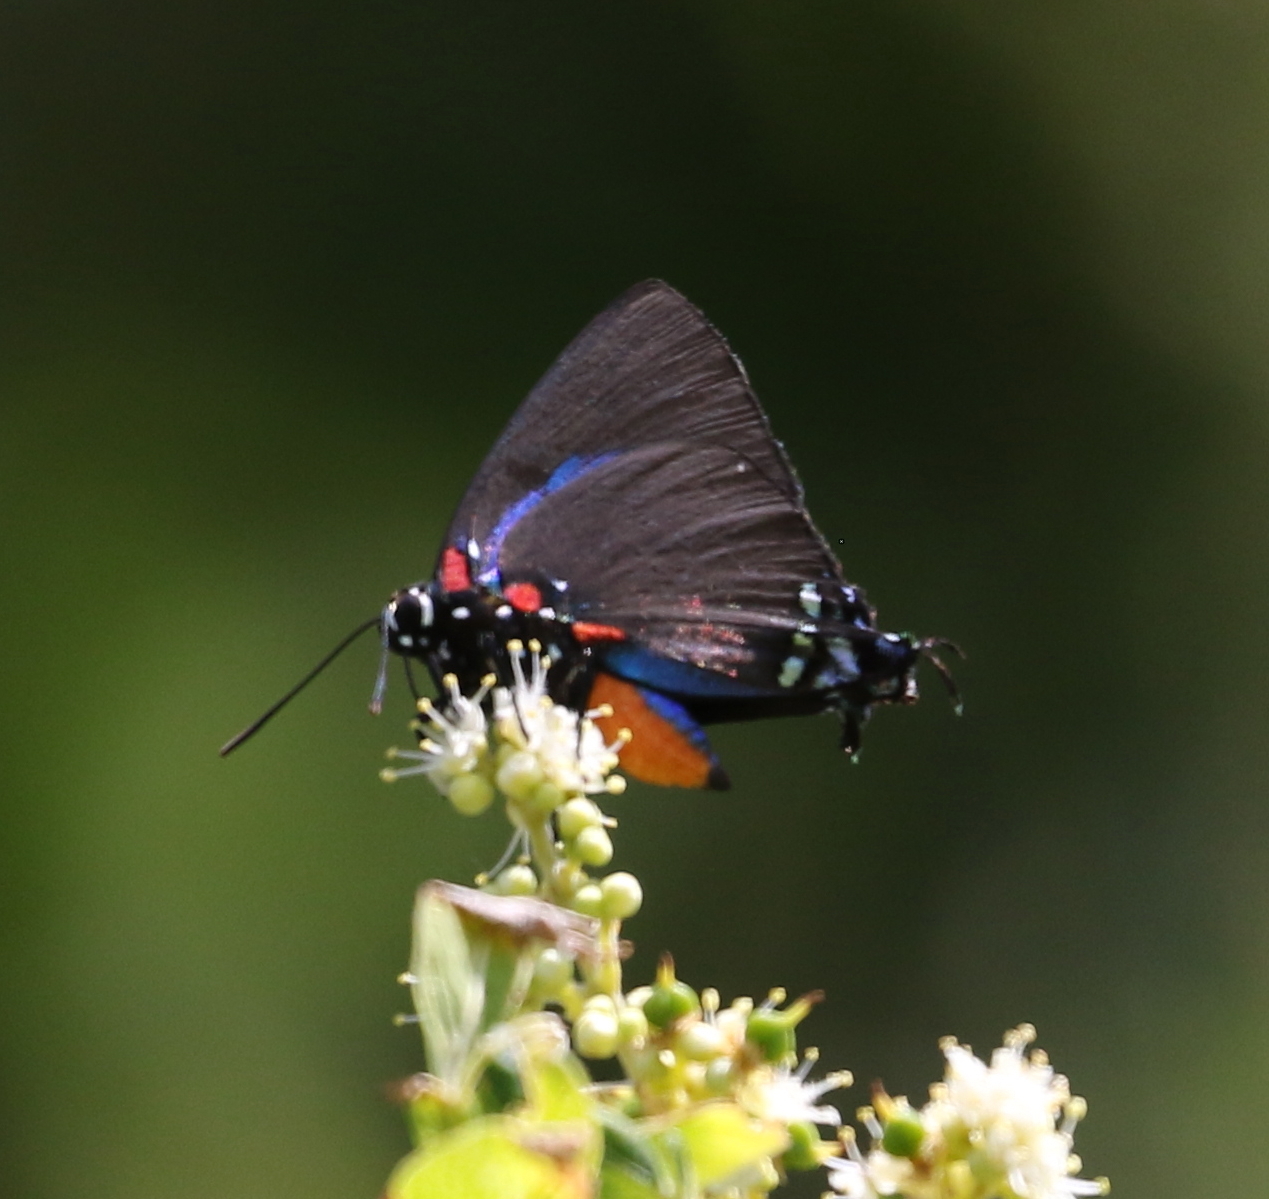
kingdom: Animalia
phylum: Arthropoda
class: Insecta
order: Lepidoptera
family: Lycaenidae
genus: Atlides
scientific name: Atlides halesus
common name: Great purple hairstreak
